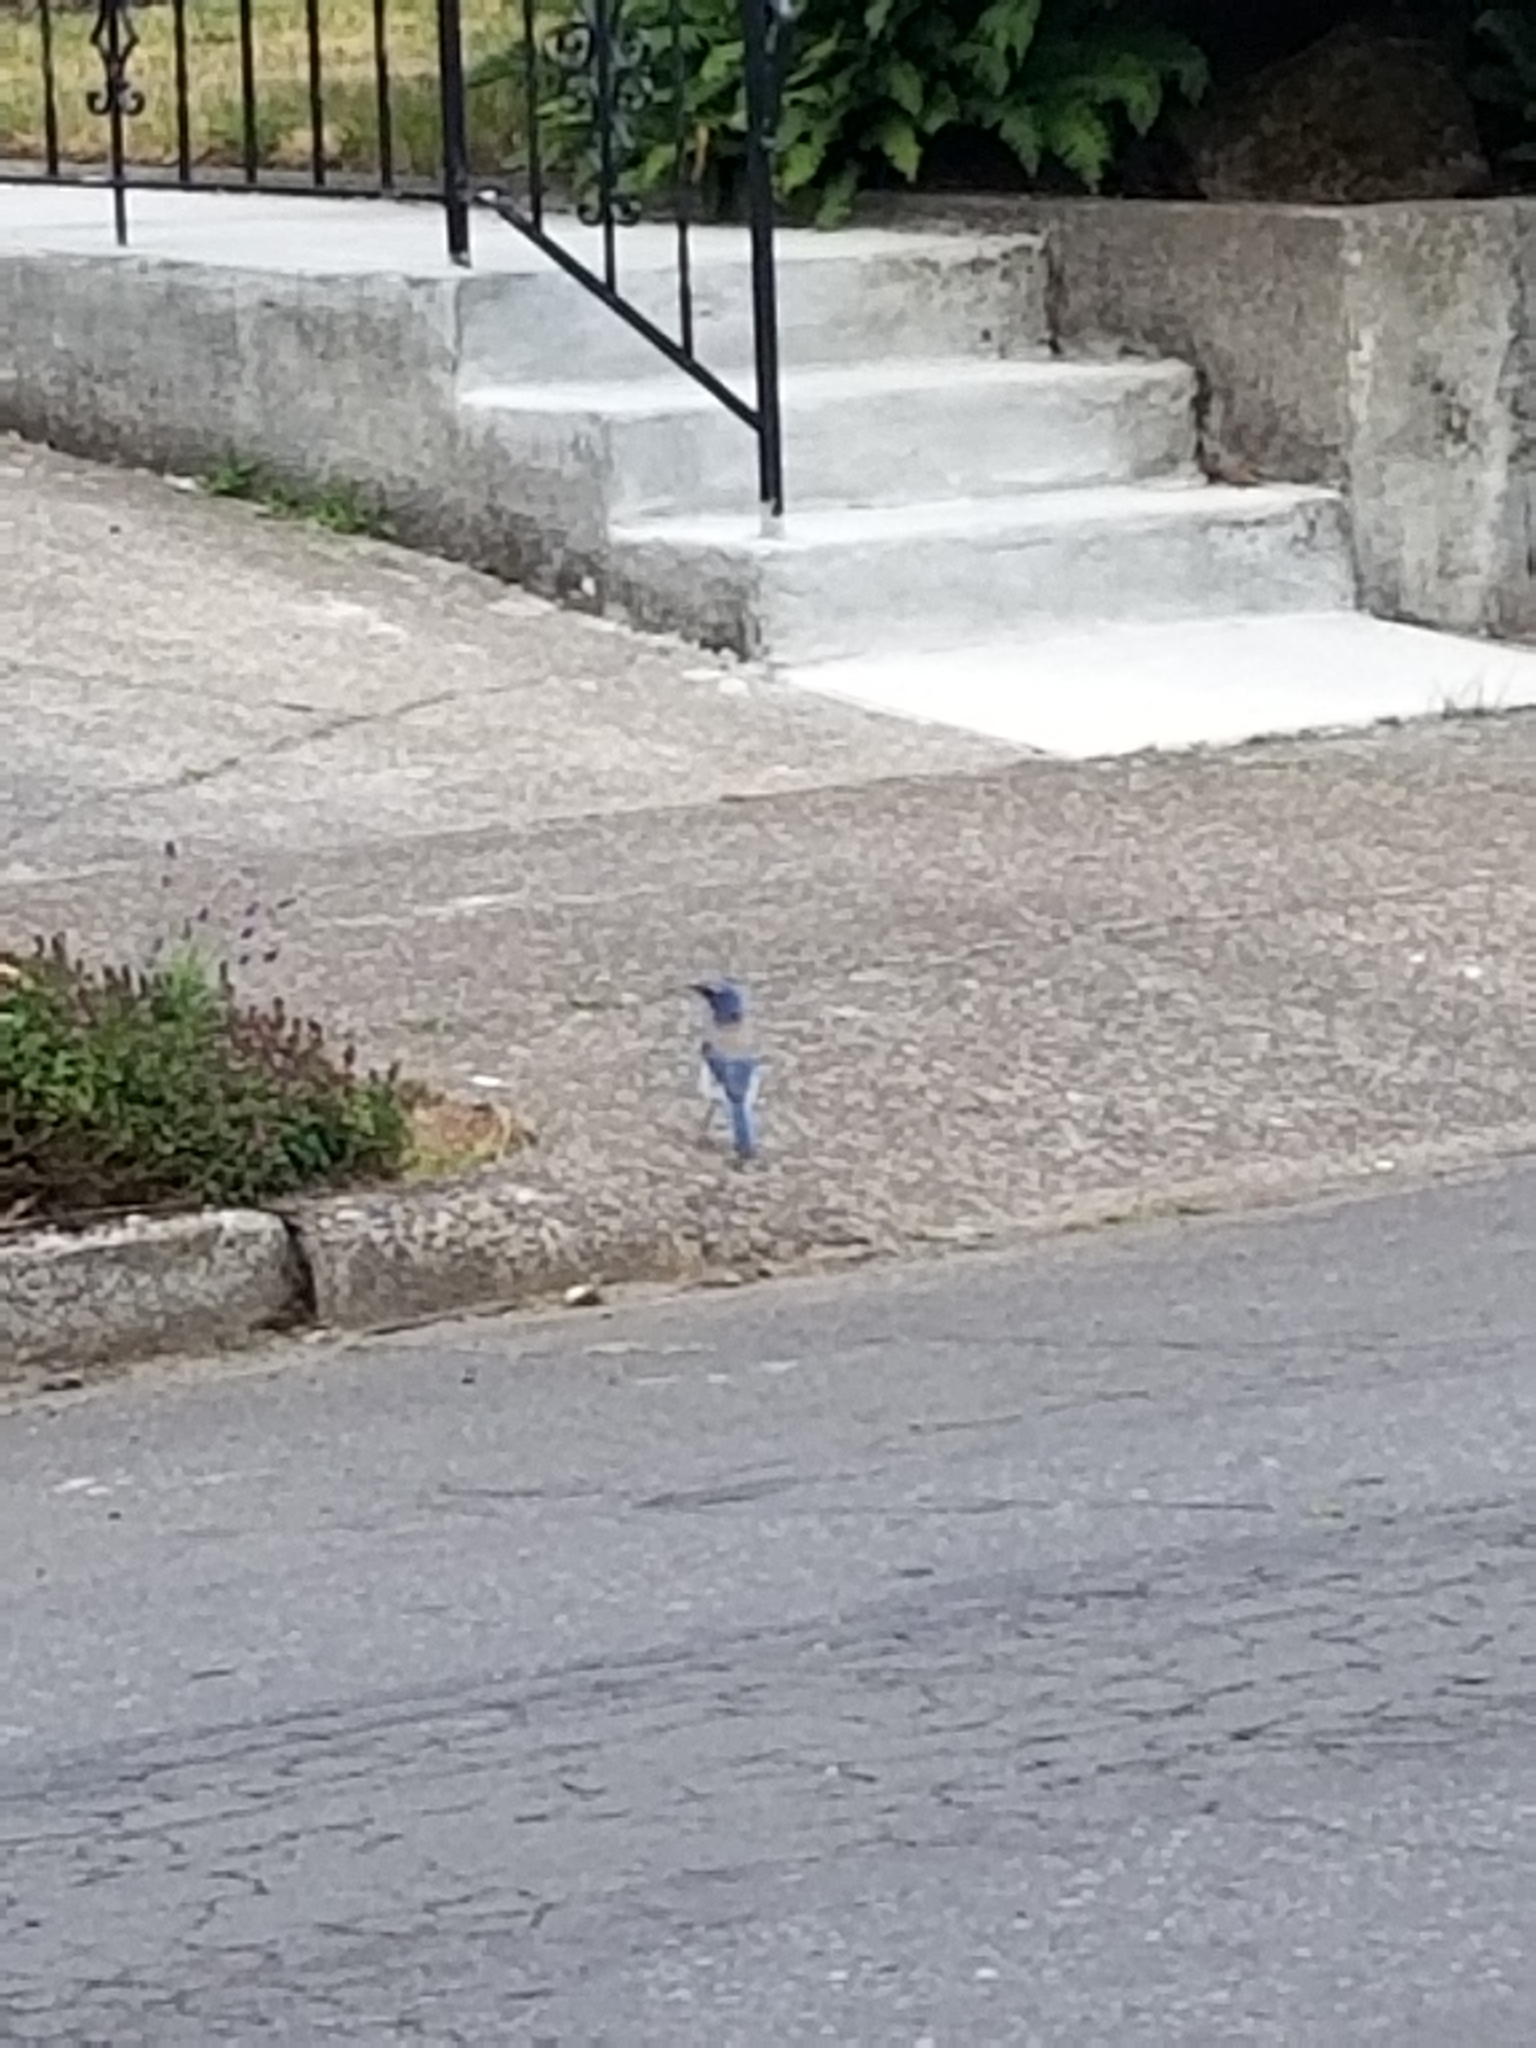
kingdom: Animalia
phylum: Chordata
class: Aves
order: Passeriformes
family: Corvidae
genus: Aphelocoma
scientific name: Aphelocoma californica
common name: California scrub-jay
